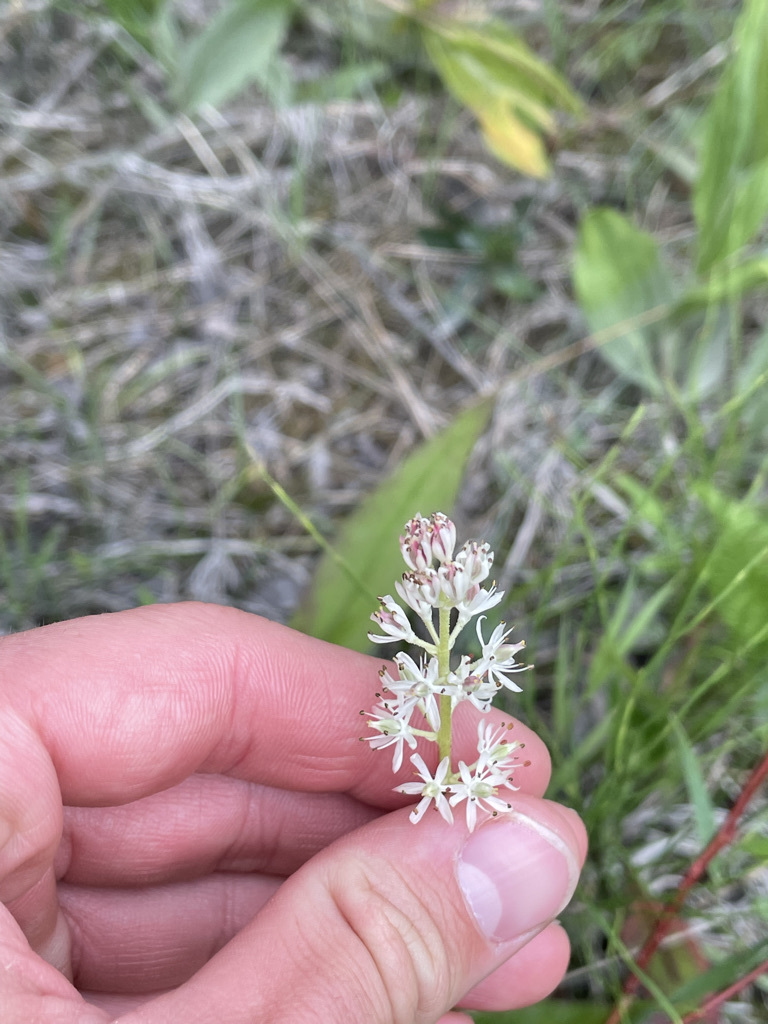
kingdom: Plantae
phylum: Tracheophyta
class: Liliopsida
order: Alismatales
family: Tofieldiaceae
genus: Triantha
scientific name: Triantha glutinosa
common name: Glutinous tofieldia
